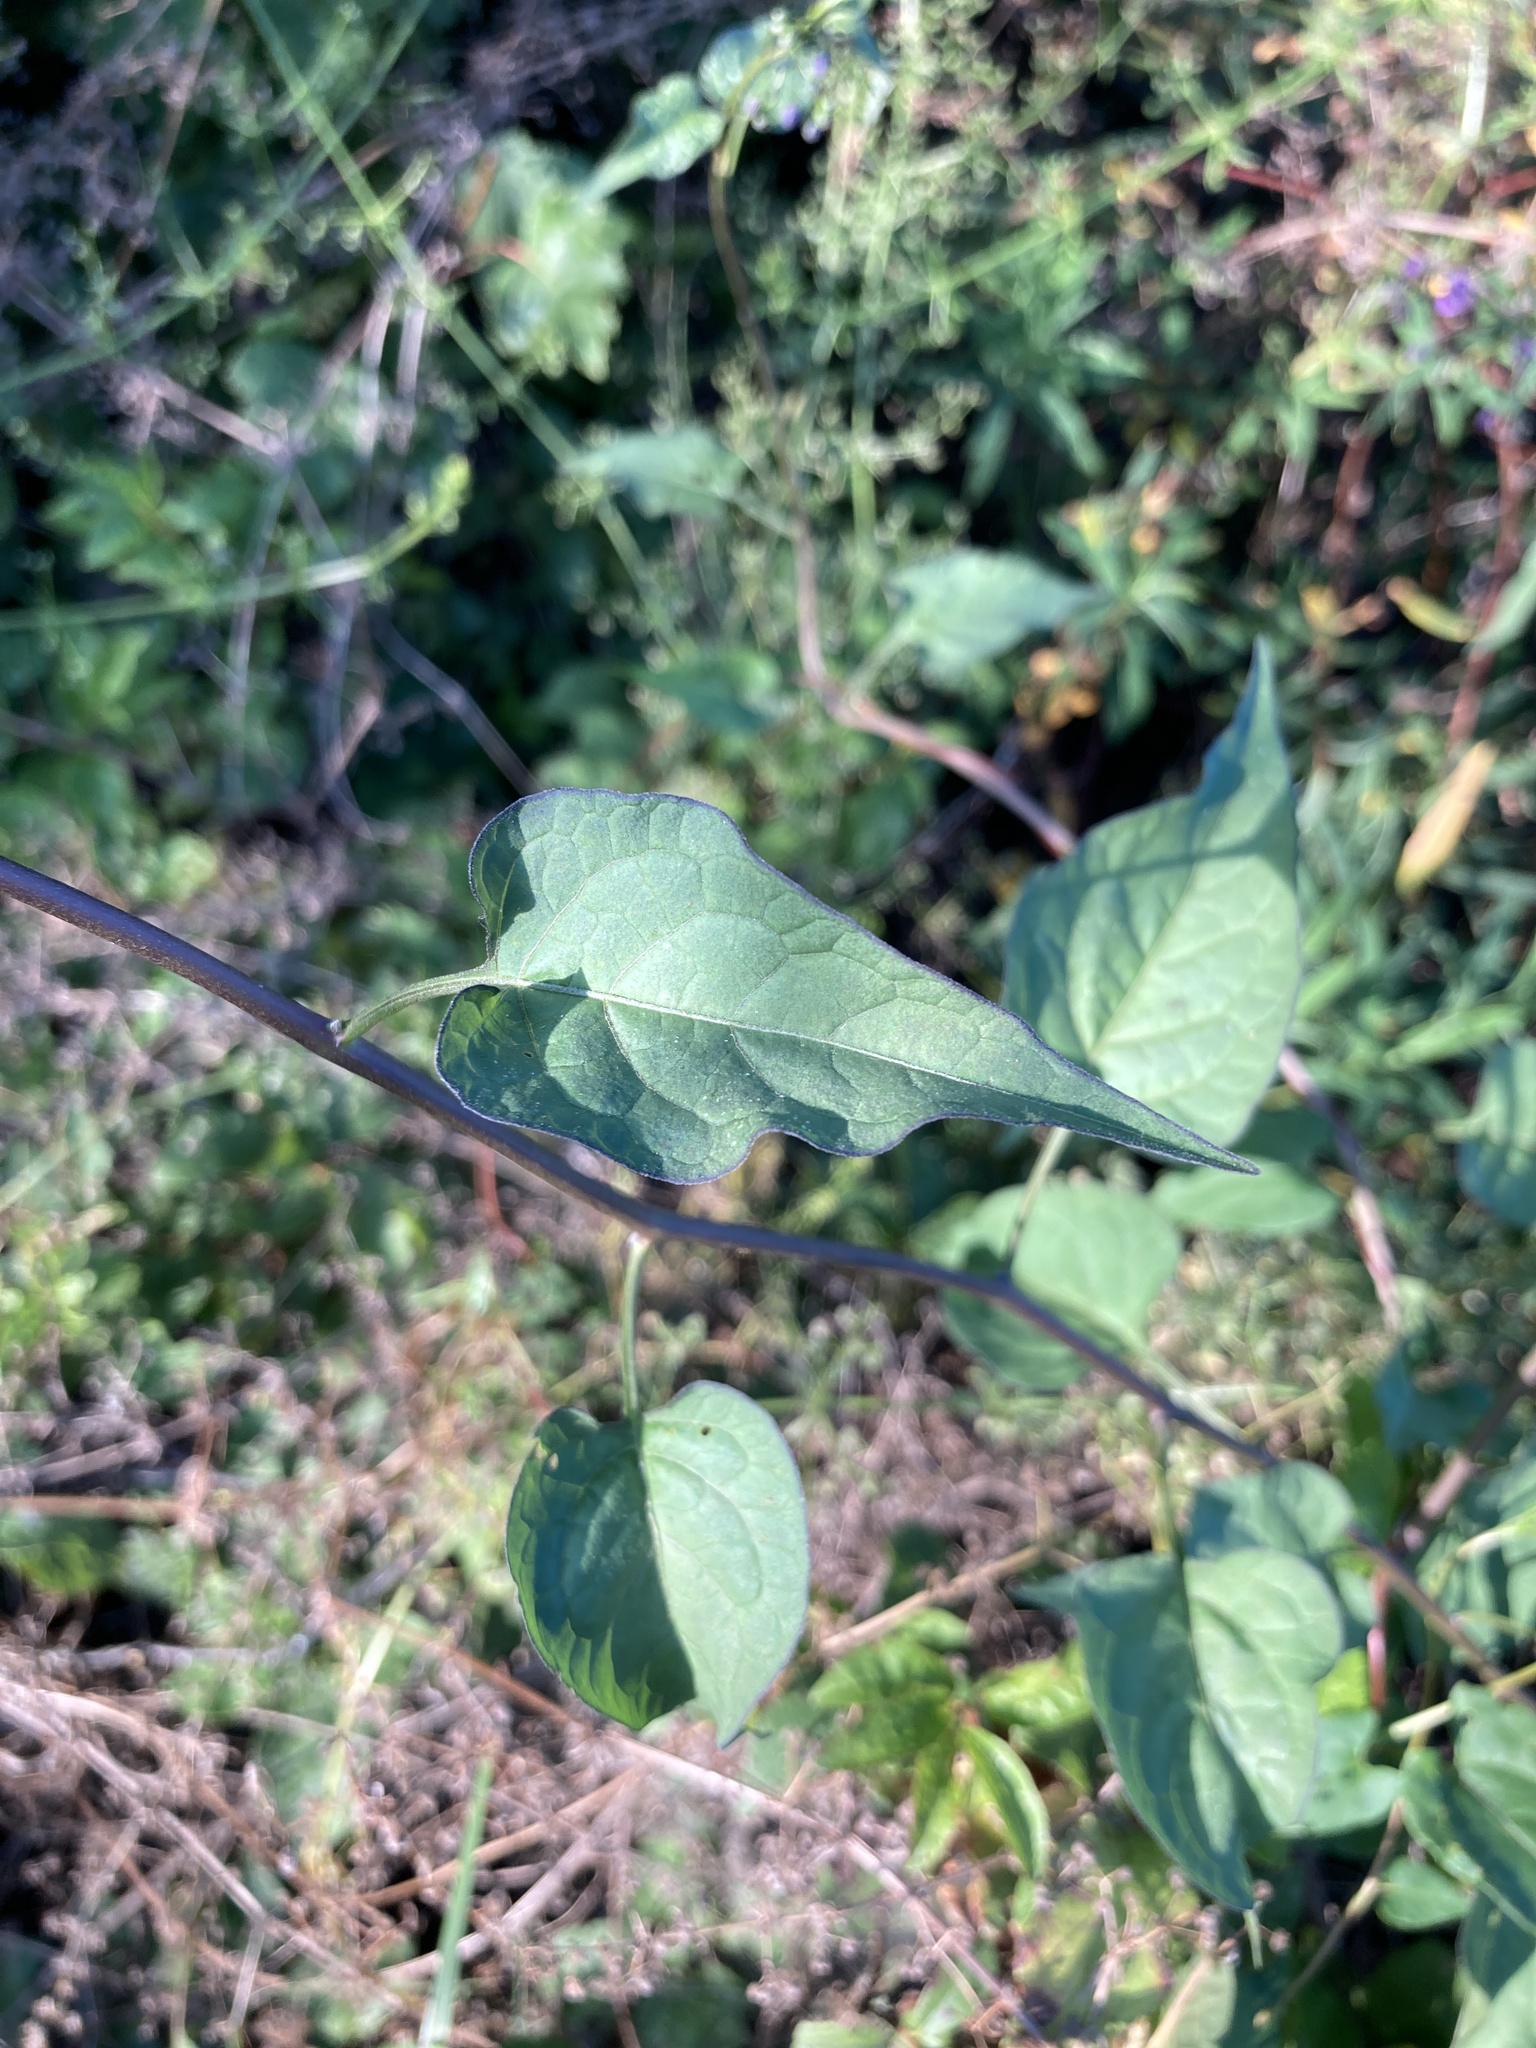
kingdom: Plantae
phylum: Tracheophyta
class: Magnoliopsida
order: Solanales
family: Solanaceae
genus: Solanum
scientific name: Solanum dulcamara
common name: Climbing nightshade
